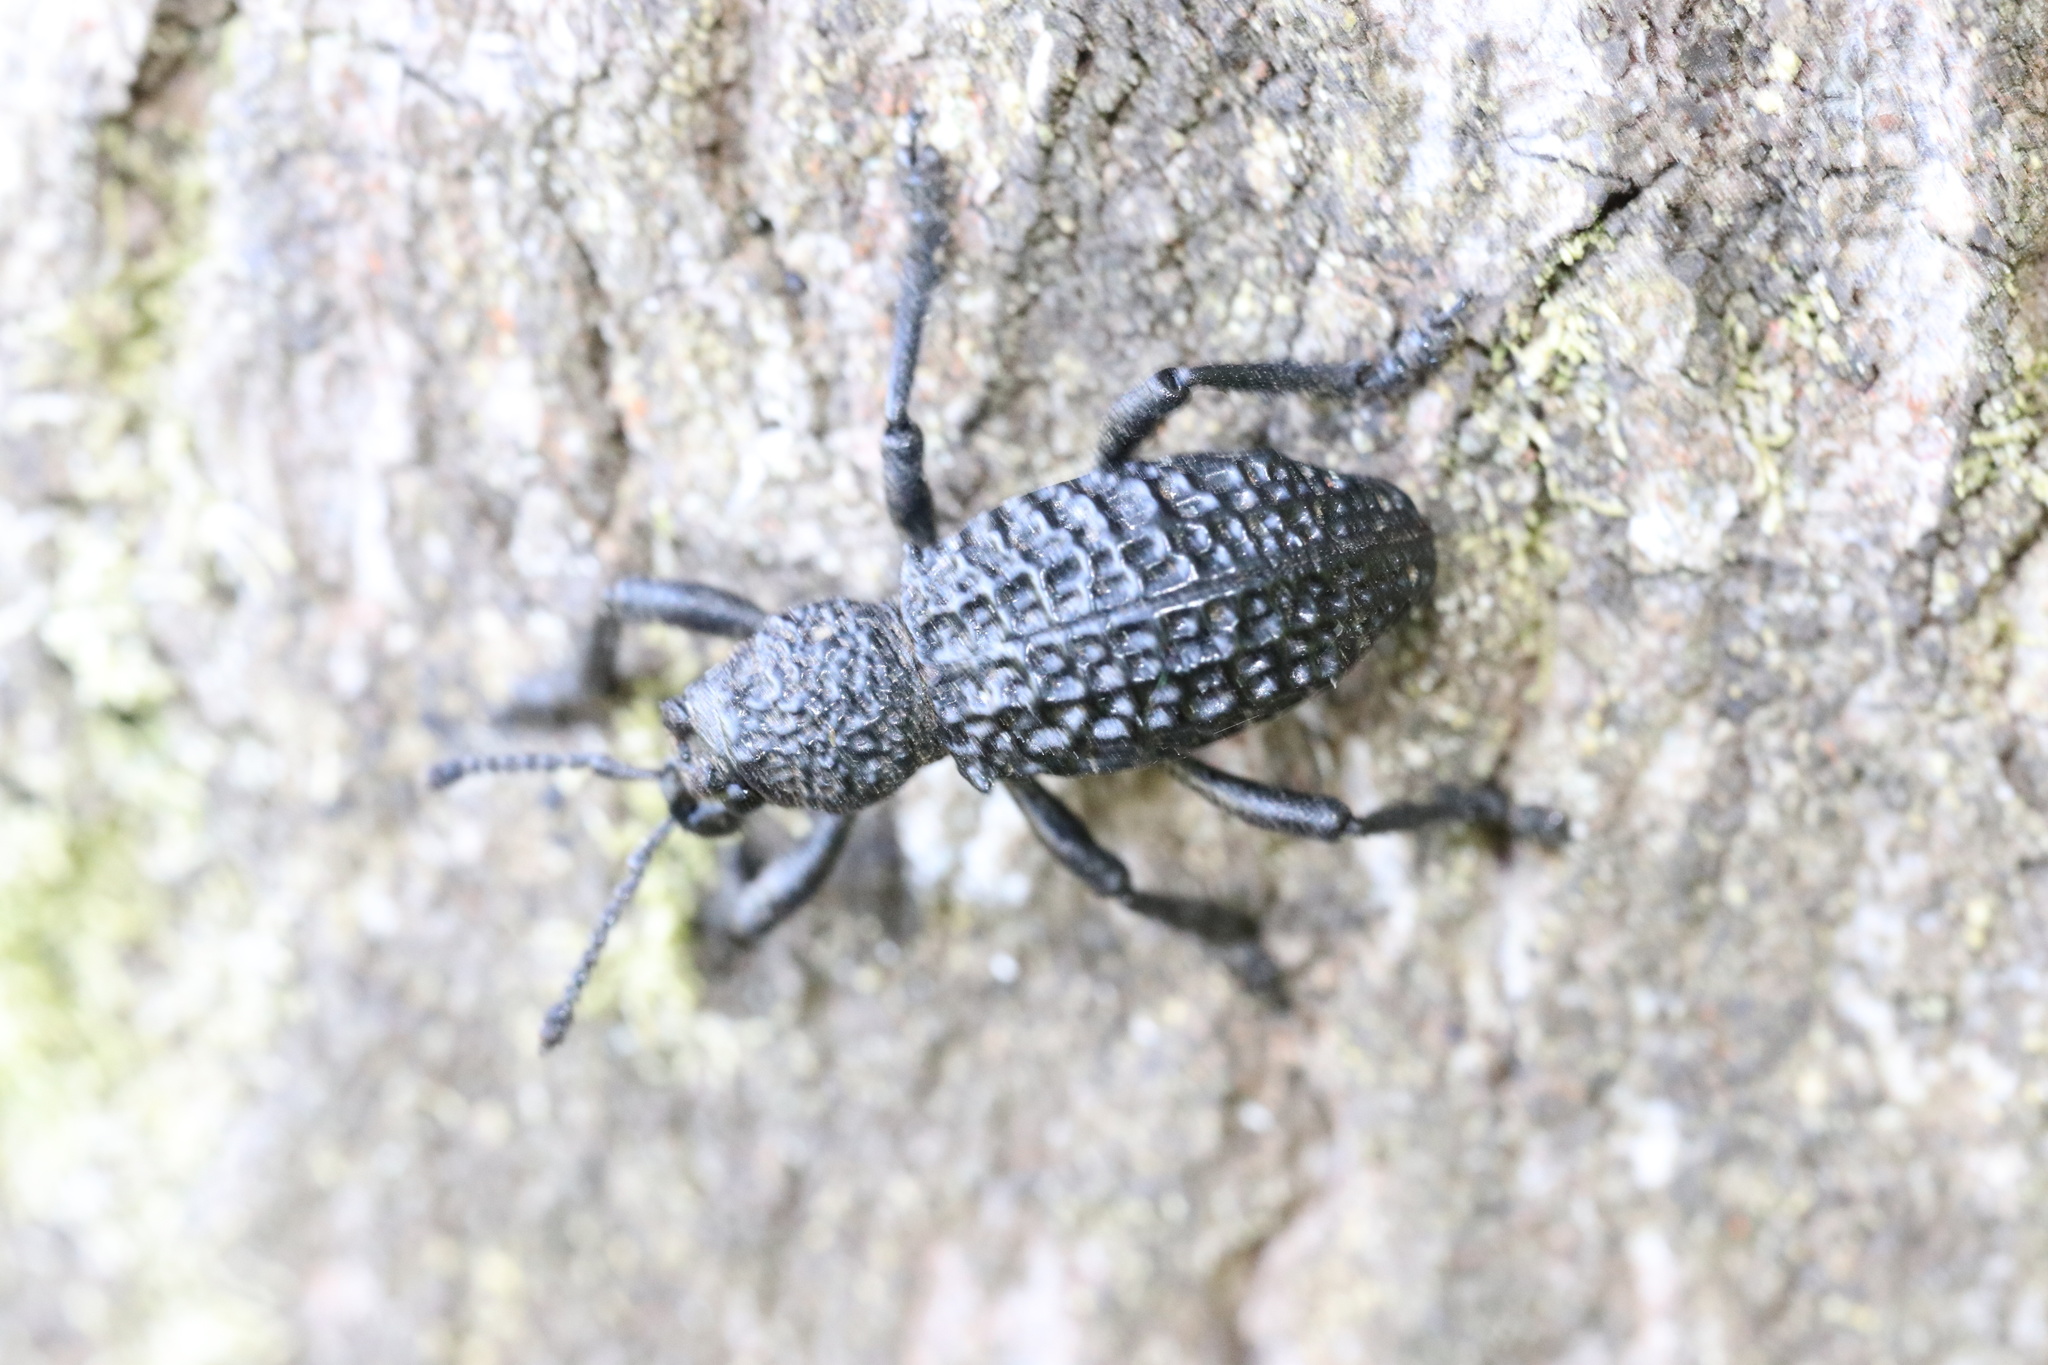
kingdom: Animalia
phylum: Arthropoda
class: Insecta
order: Coleoptera
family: Curculionidae
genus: Aegorhinus
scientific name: Aegorhinus superciliosus
